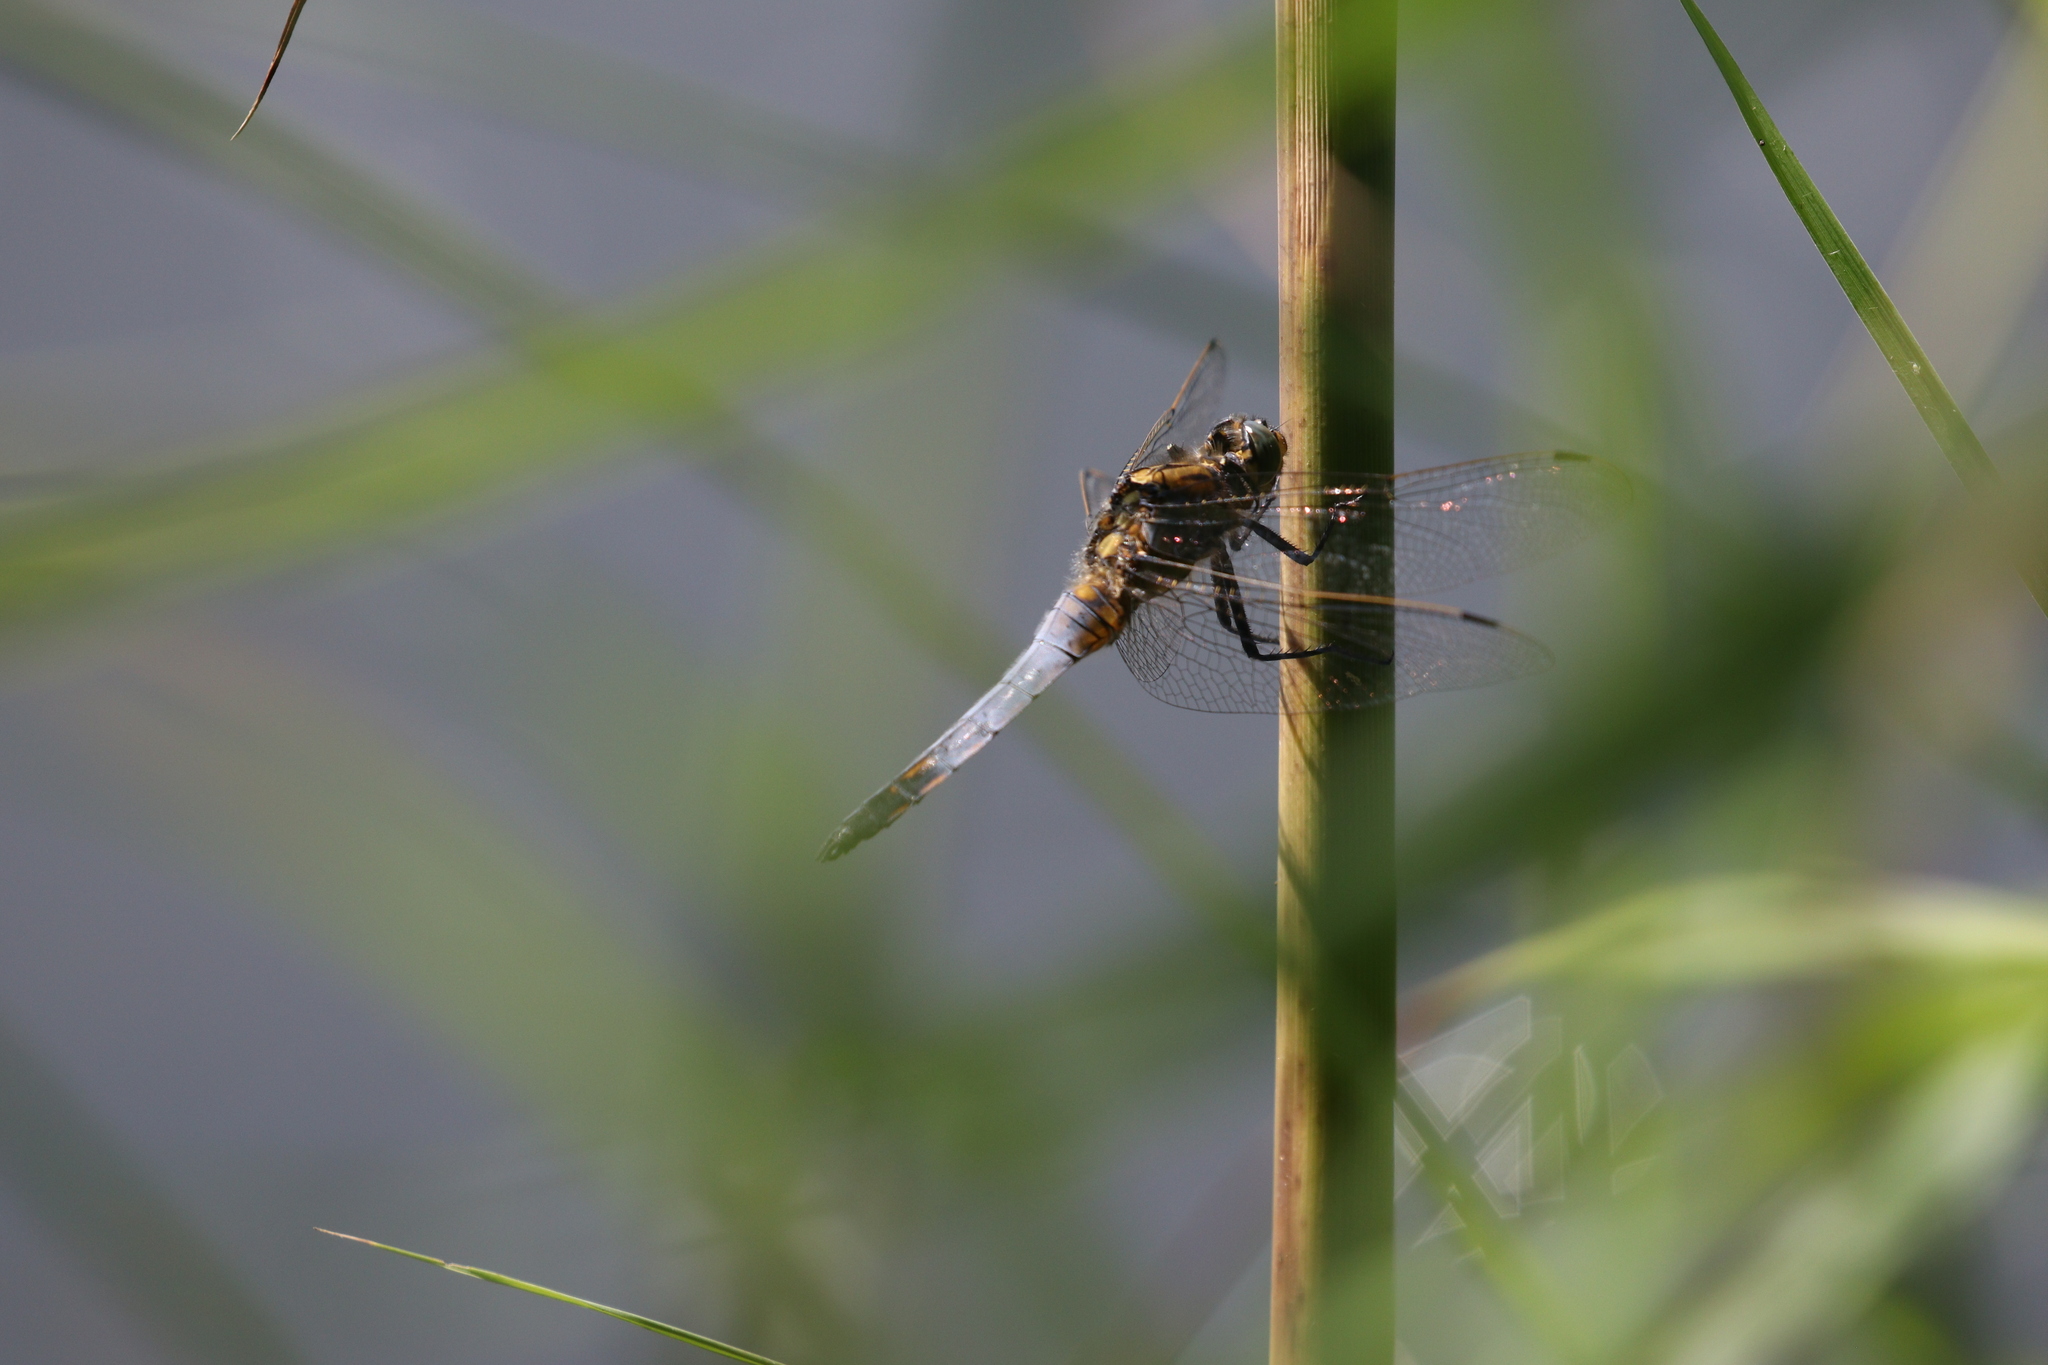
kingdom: Animalia
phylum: Arthropoda
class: Insecta
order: Odonata
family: Libellulidae
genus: Orthetrum
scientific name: Orthetrum cancellatum
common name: Black-tailed skimmer
